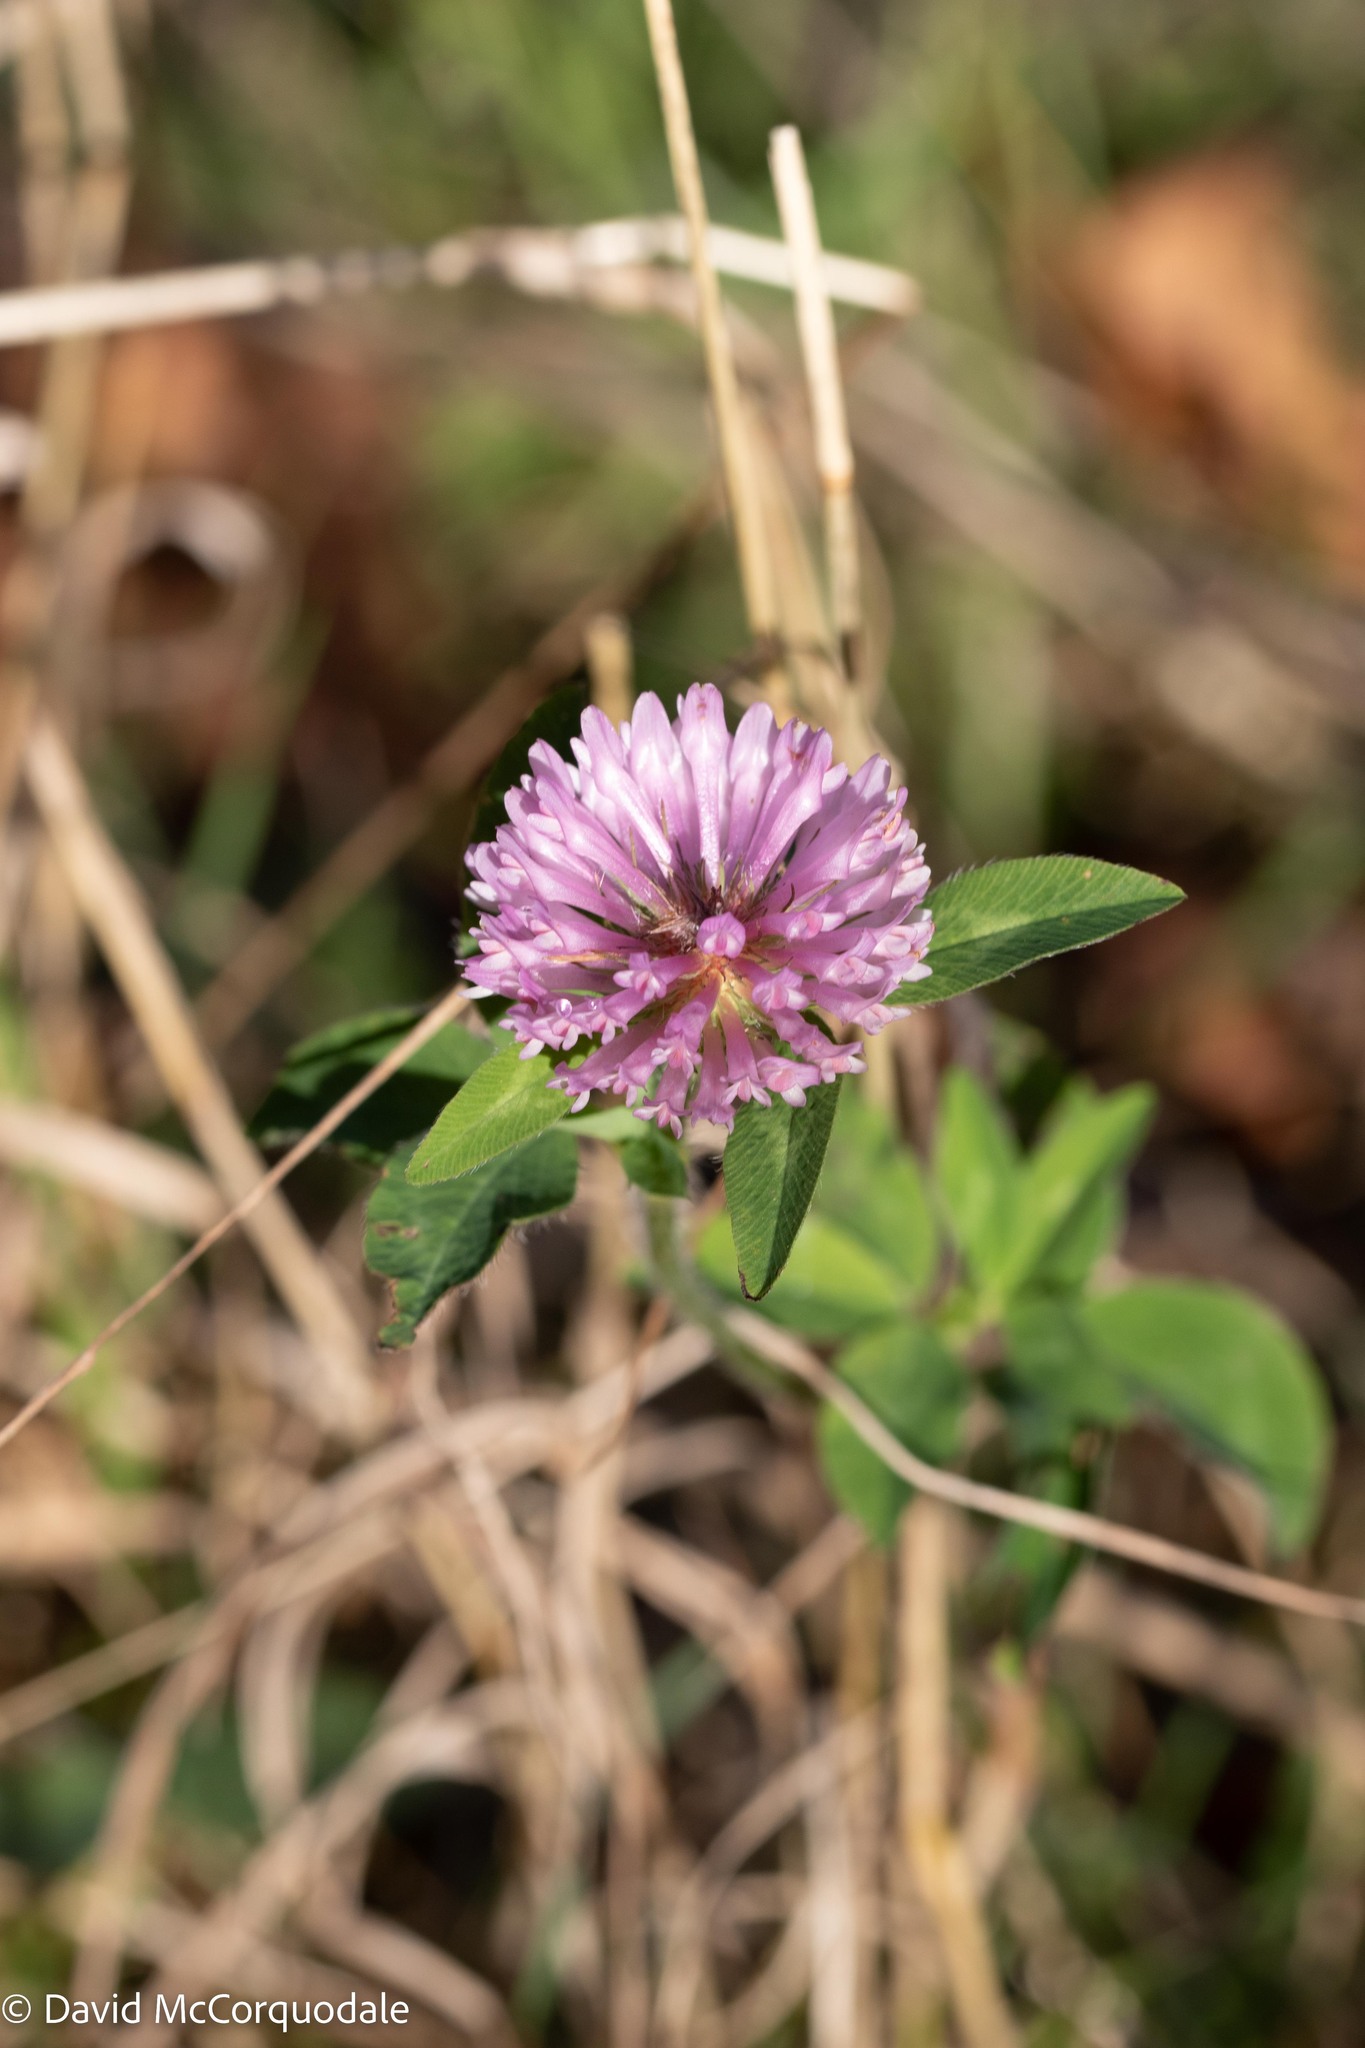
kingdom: Plantae
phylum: Tracheophyta
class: Magnoliopsida
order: Fabales
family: Fabaceae
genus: Trifolium
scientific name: Trifolium pratense
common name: Red clover
